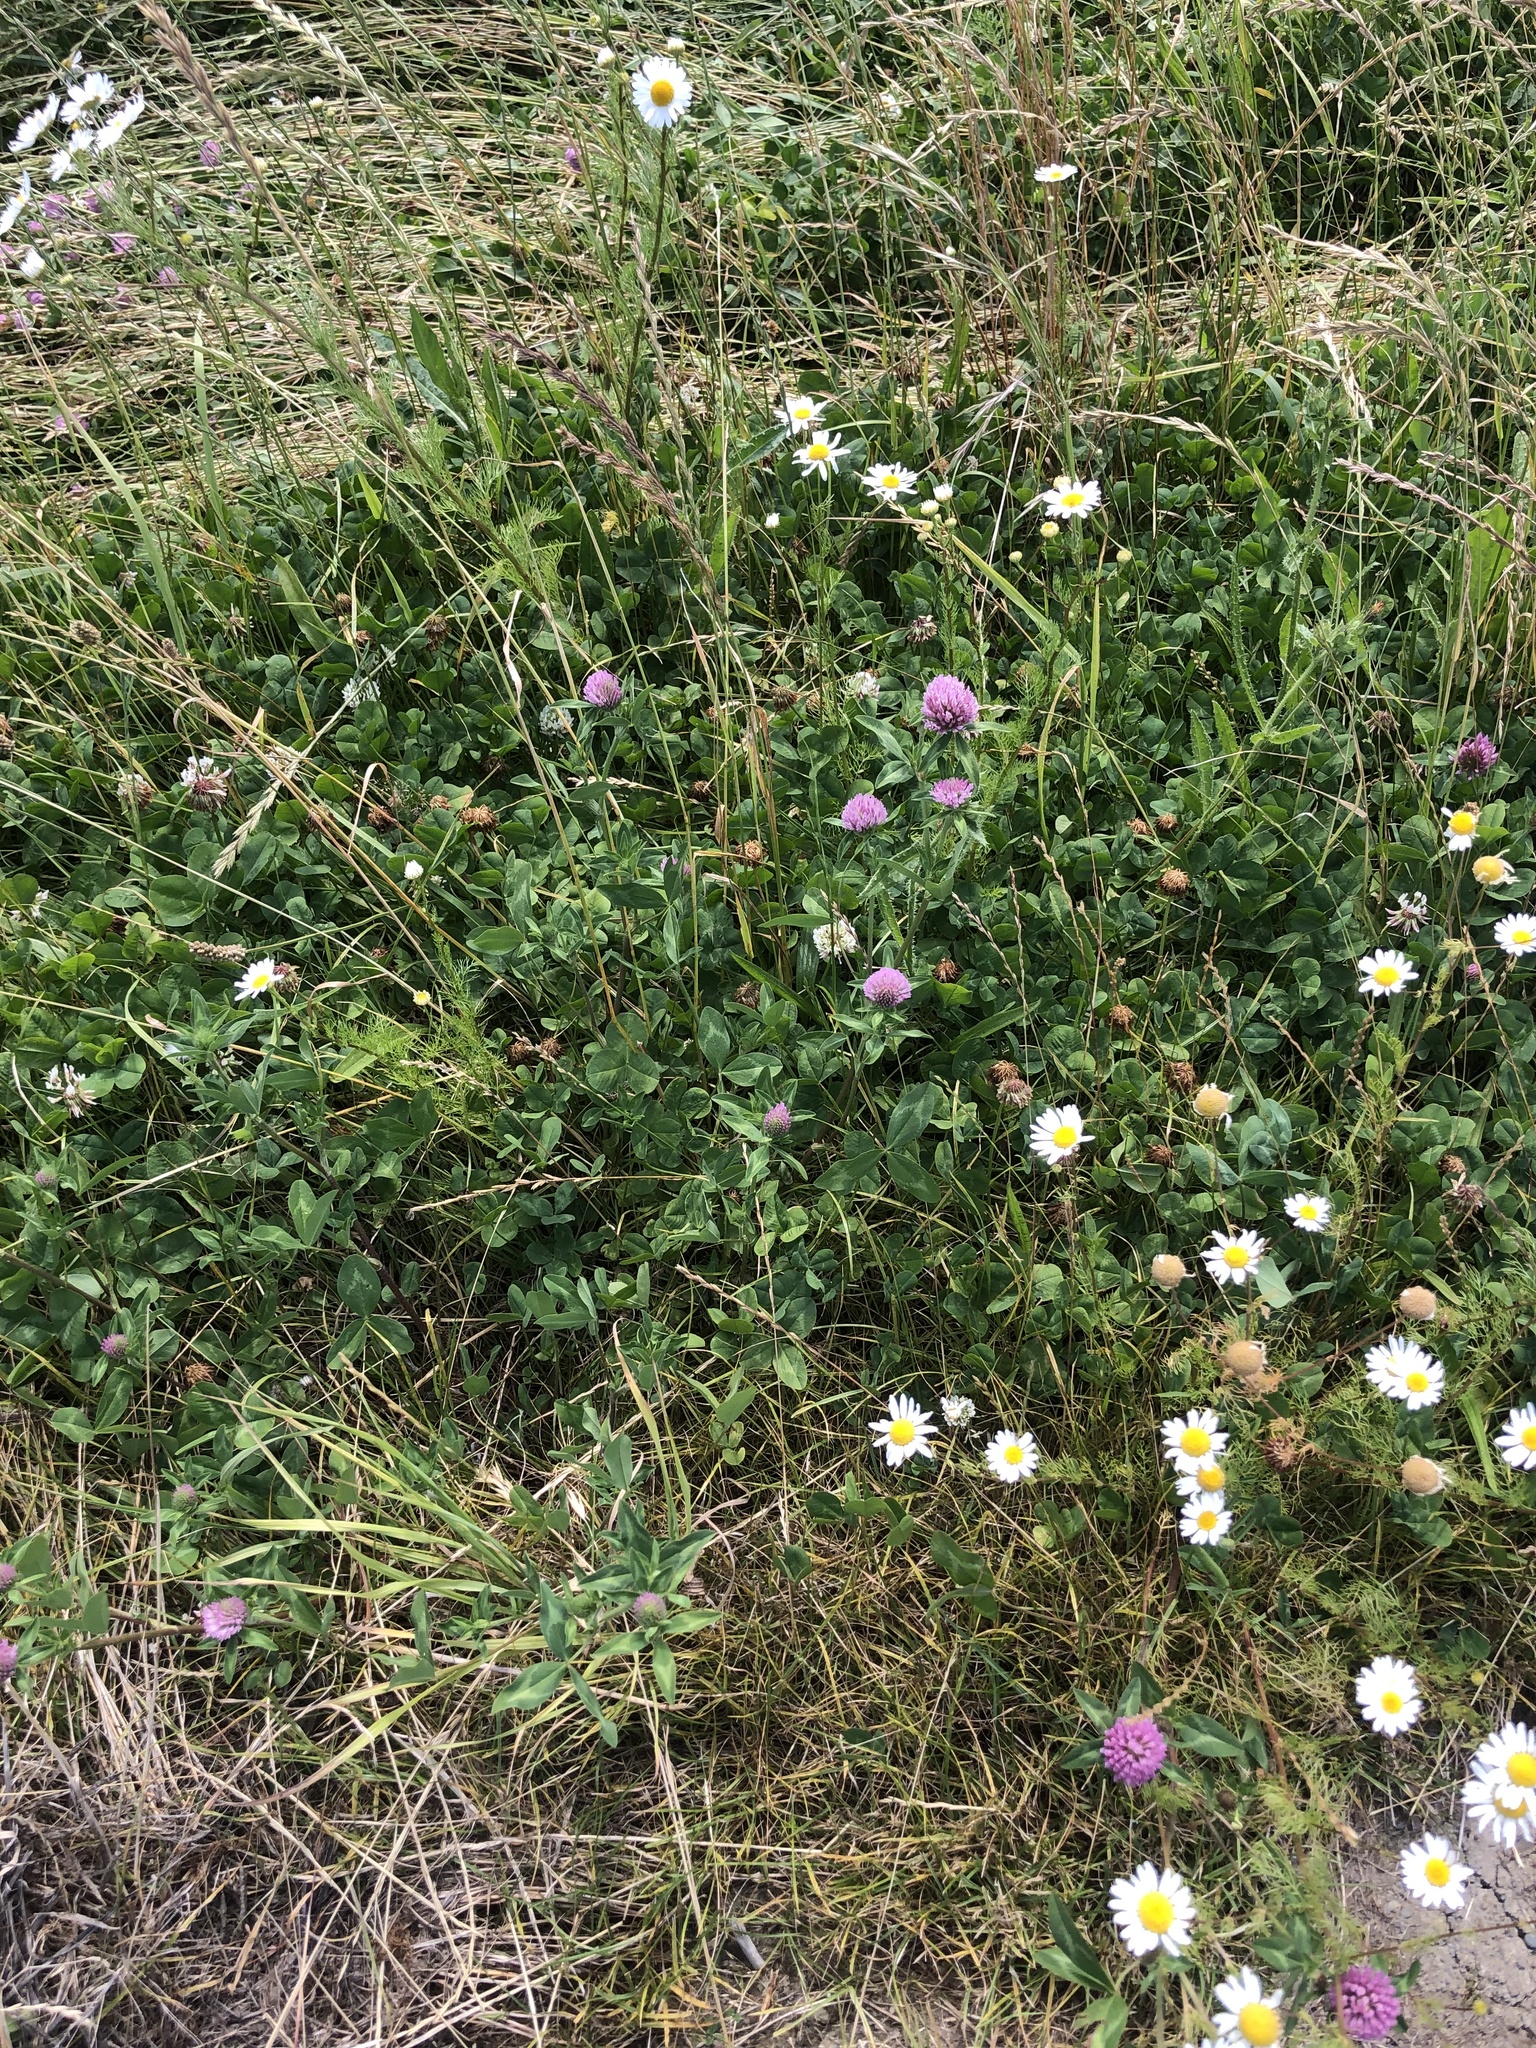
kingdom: Plantae
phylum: Tracheophyta
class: Magnoliopsida
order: Fabales
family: Fabaceae
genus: Trifolium
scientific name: Trifolium pratense
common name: Red clover
